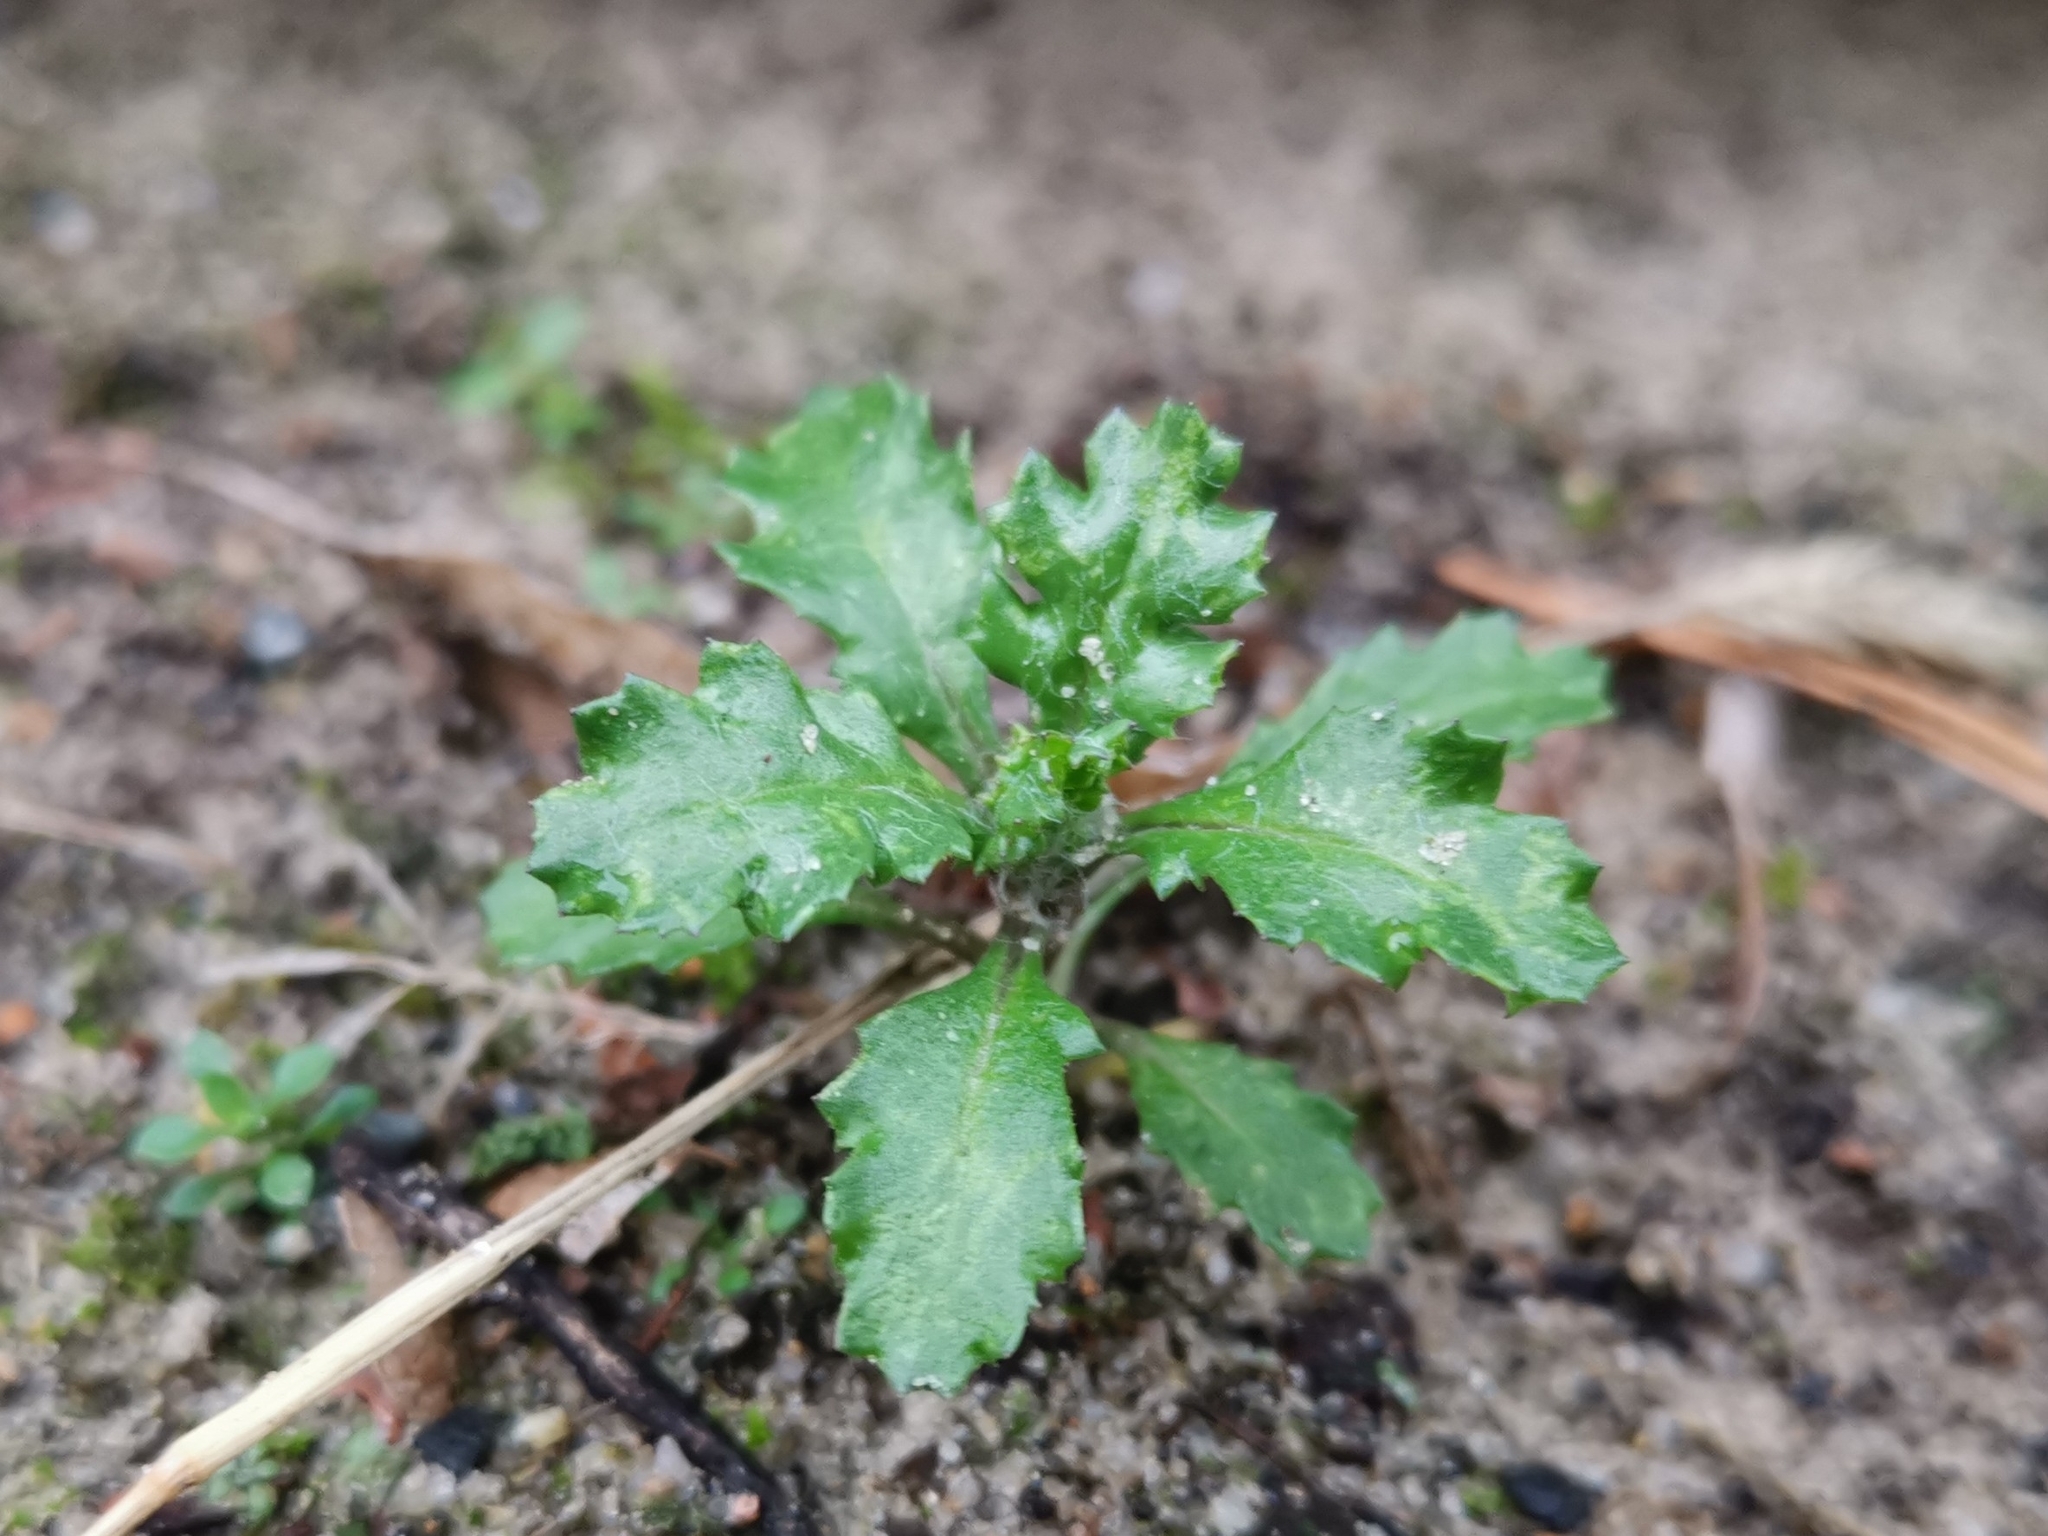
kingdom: Plantae
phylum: Tracheophyta
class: Magnoliopsida
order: Asterales
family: Asteraceae
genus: Senecio
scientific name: Senecio vulgaris
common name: Old-man-in-the-spring
